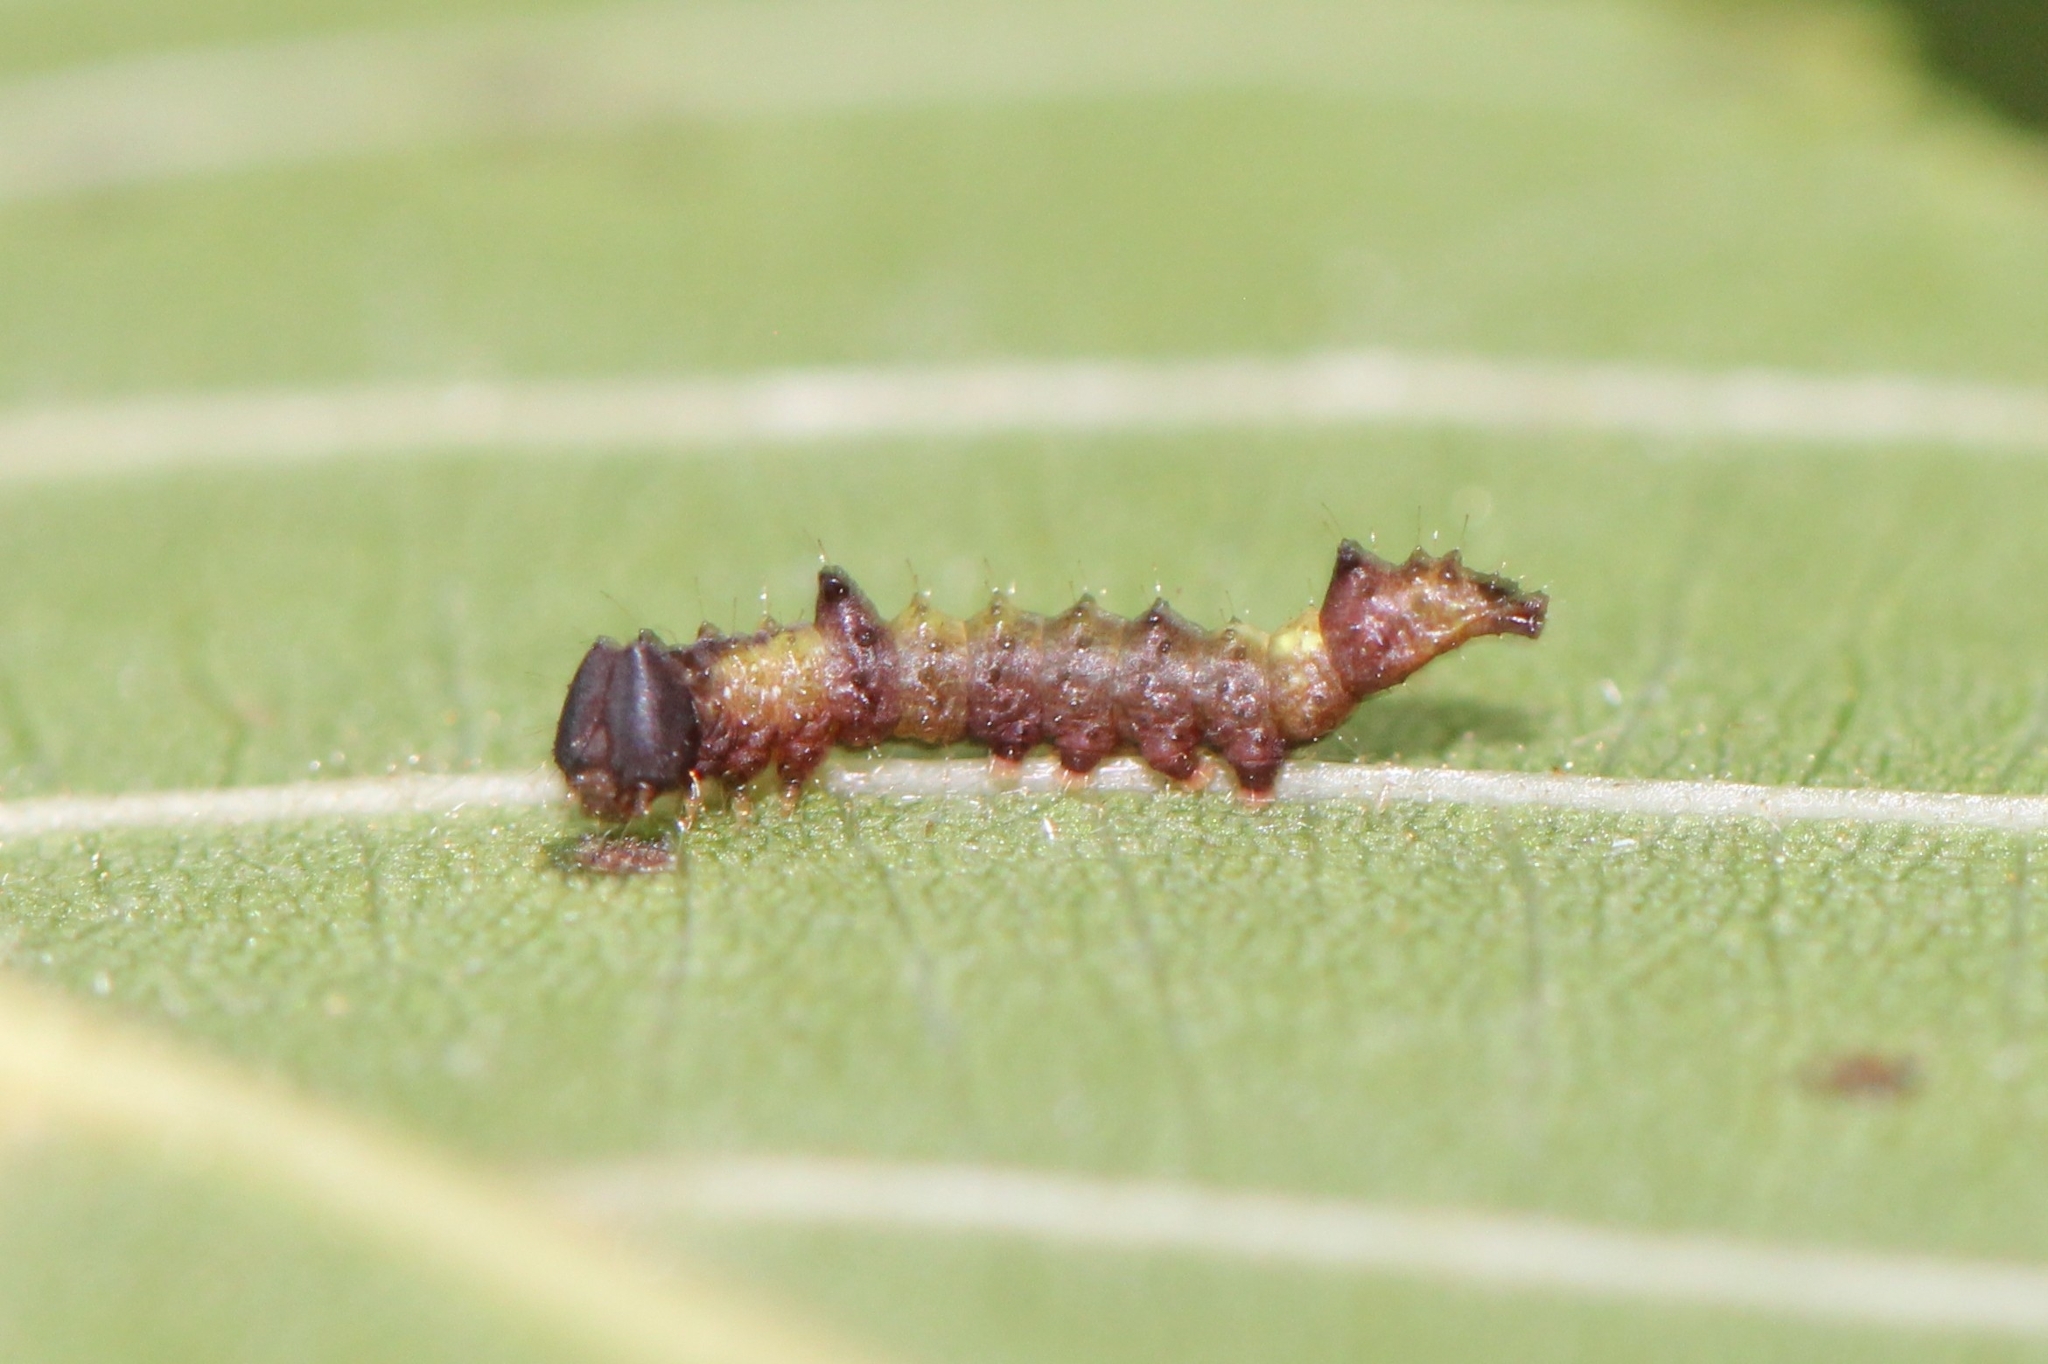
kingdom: Animalia
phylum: Arthropoda
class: Insecta
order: Lepidoptera
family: Notodontidae
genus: Schizura
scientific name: Schizura
